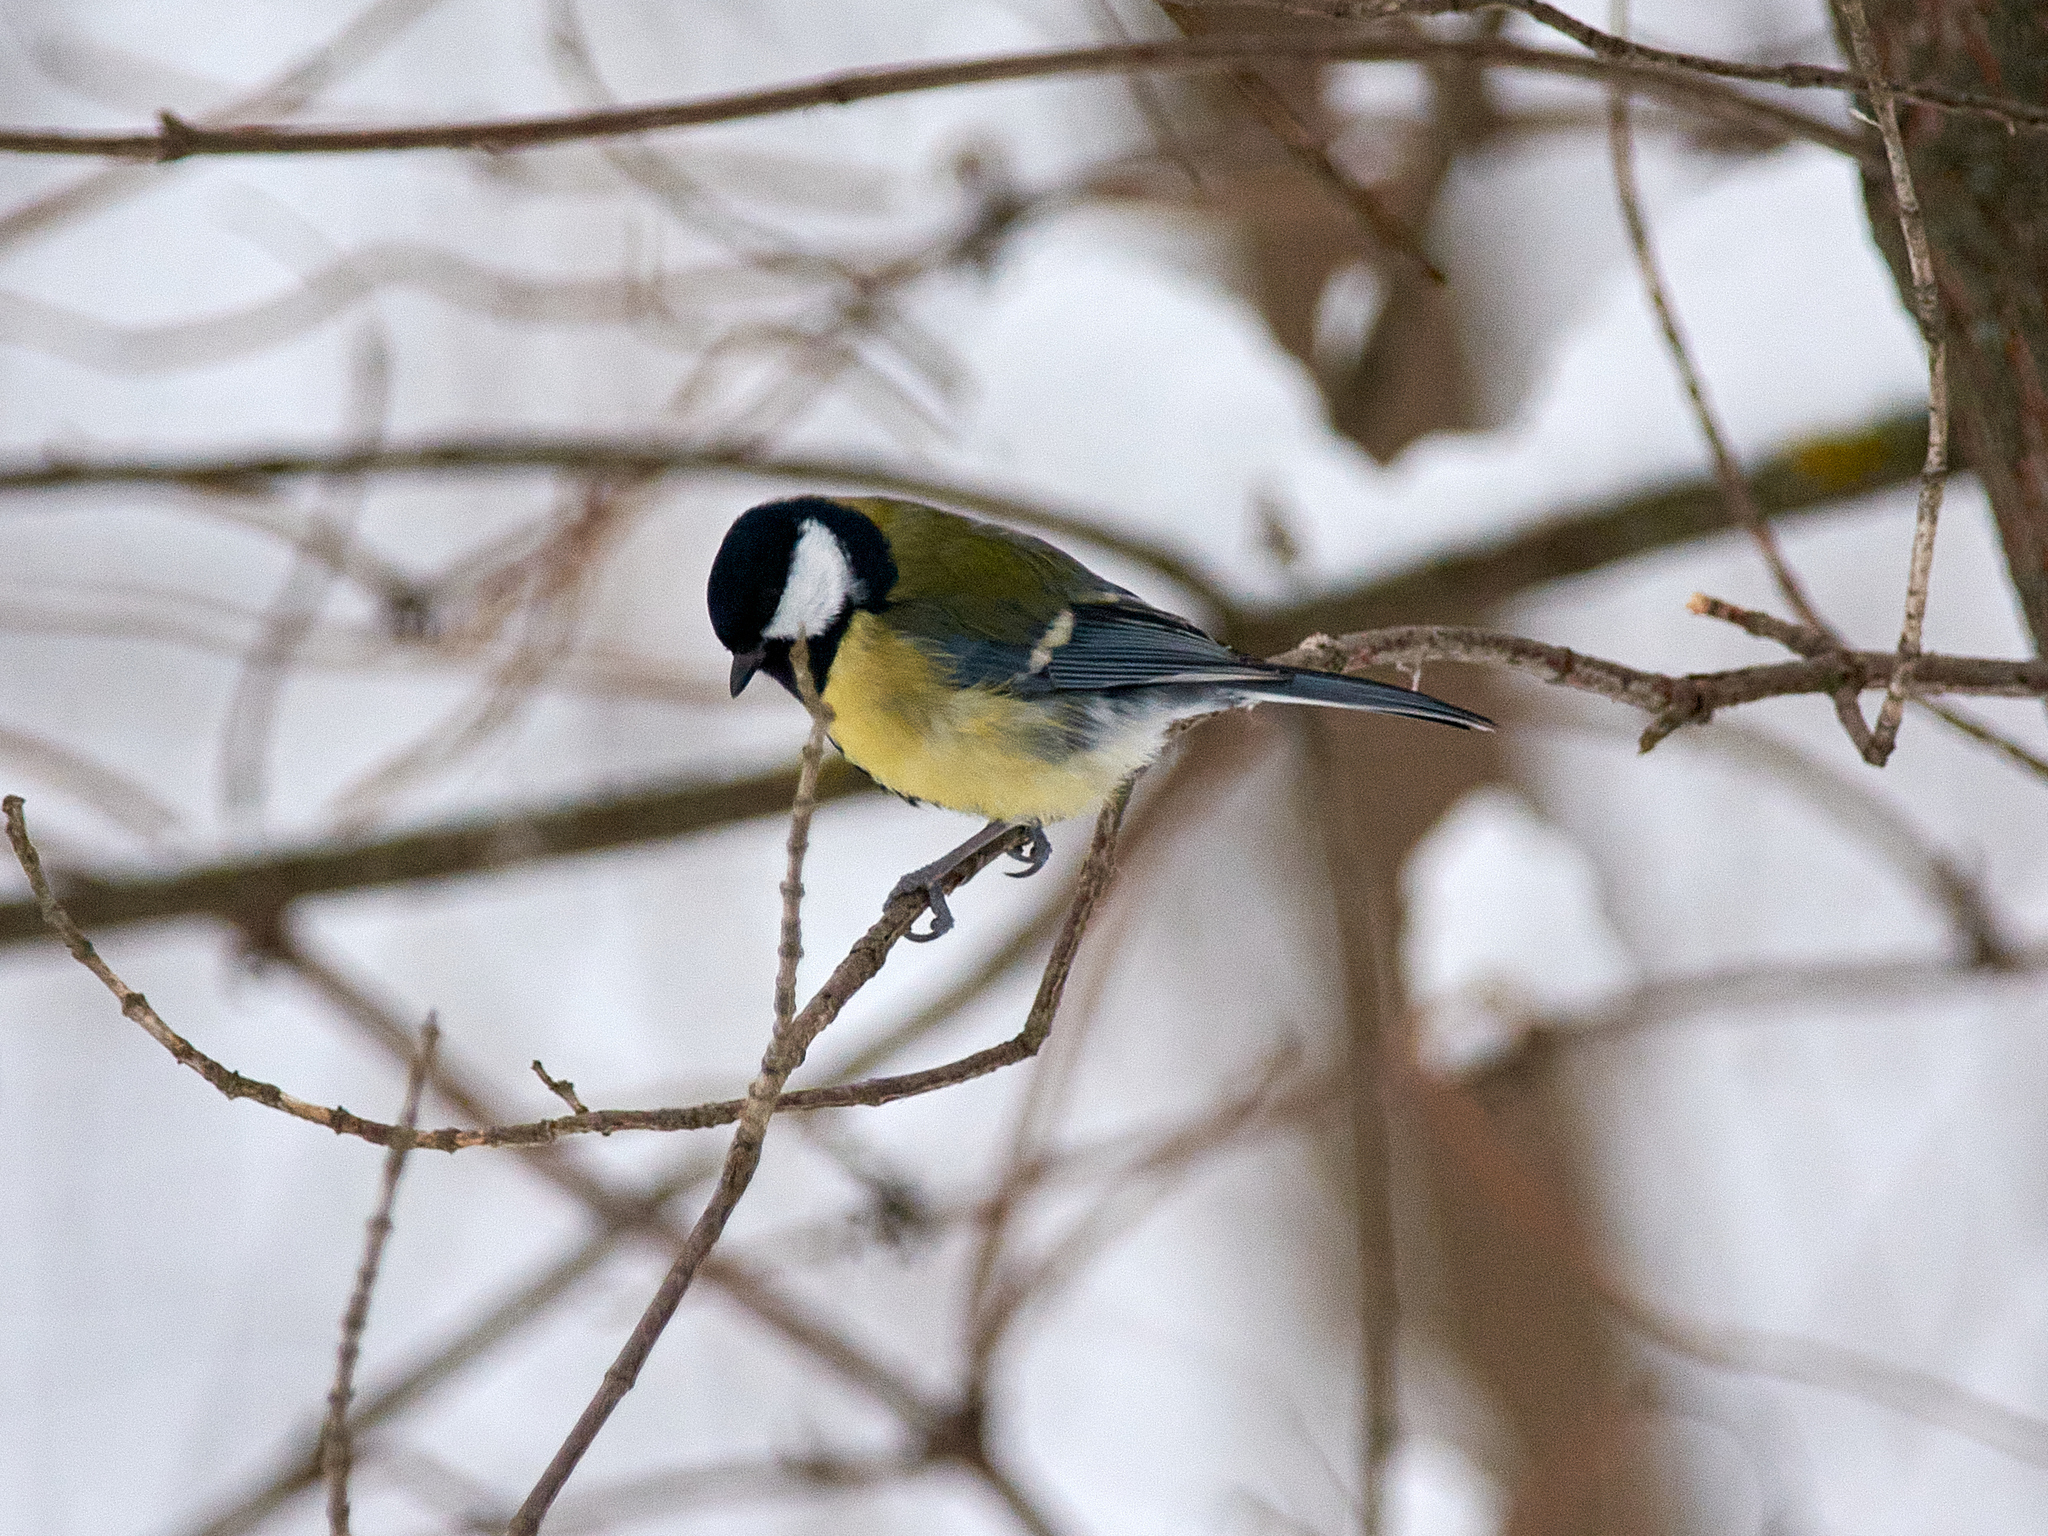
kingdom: Animalia
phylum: Chordata
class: Aves
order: Passeriformes
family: Paridae
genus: Parus
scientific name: Parus major
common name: Great tit
